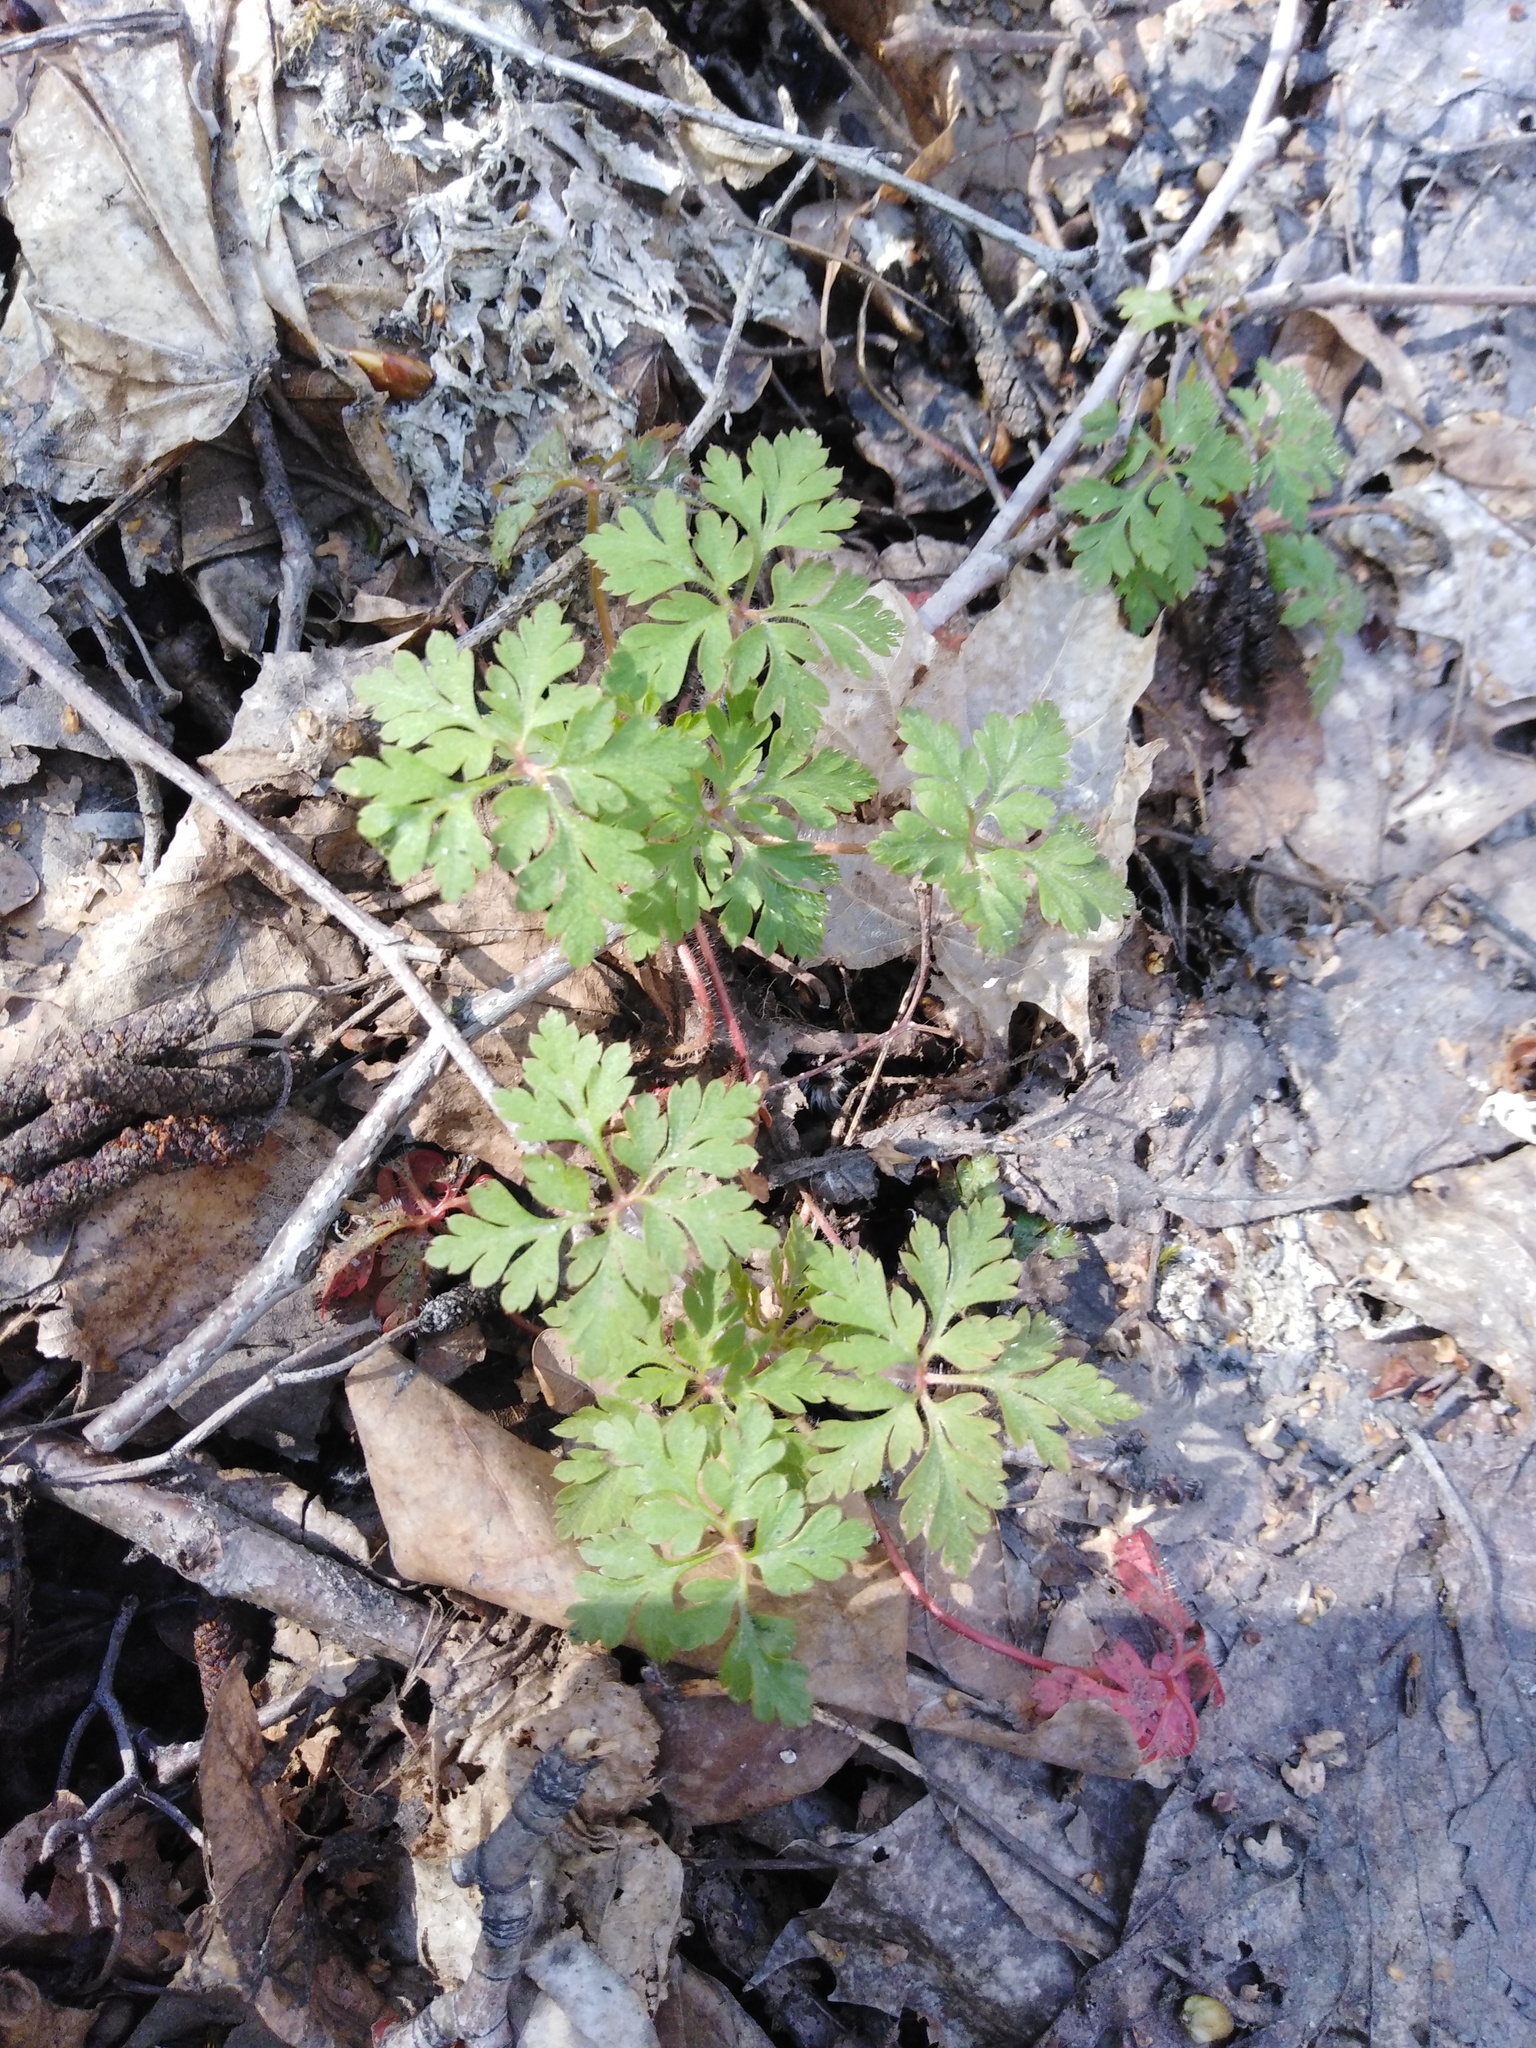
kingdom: Plantae
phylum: Tracheophyta
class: Magnoliopsida
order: Geraniales
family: Geraniaceae
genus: Geranium
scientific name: Geranium robertianum
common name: Herb-robert
